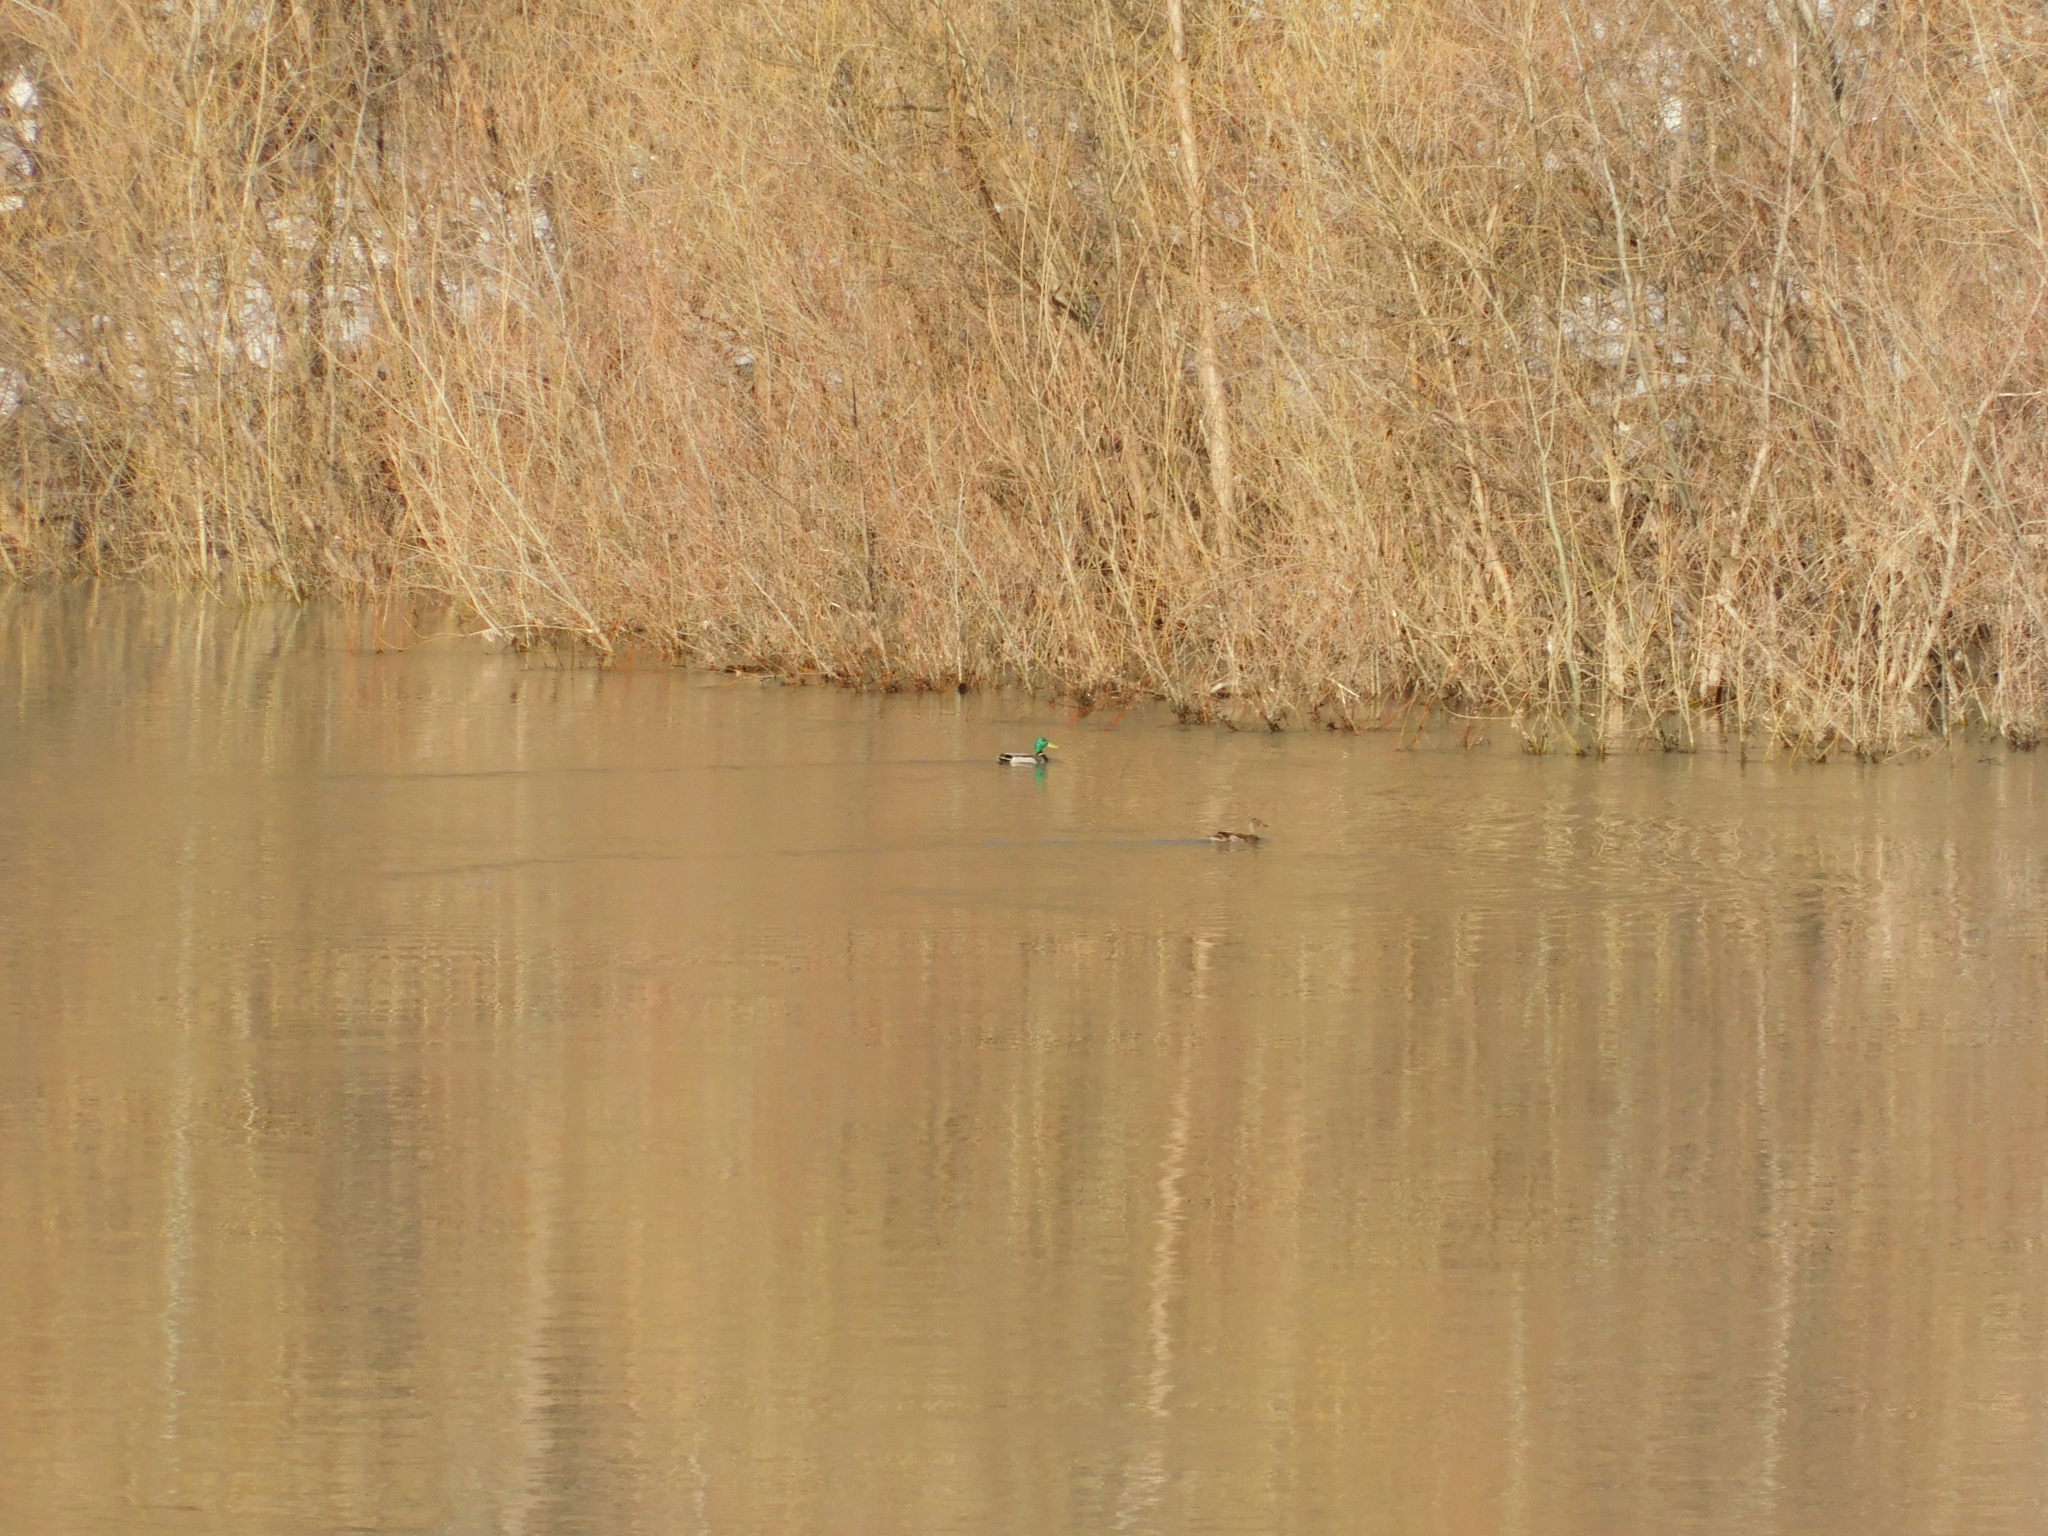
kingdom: Animalia
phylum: Chordata
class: Aves
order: Anseriformes
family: Anatidae
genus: Anas
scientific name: Anas platyrhynchos
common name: Mallard
